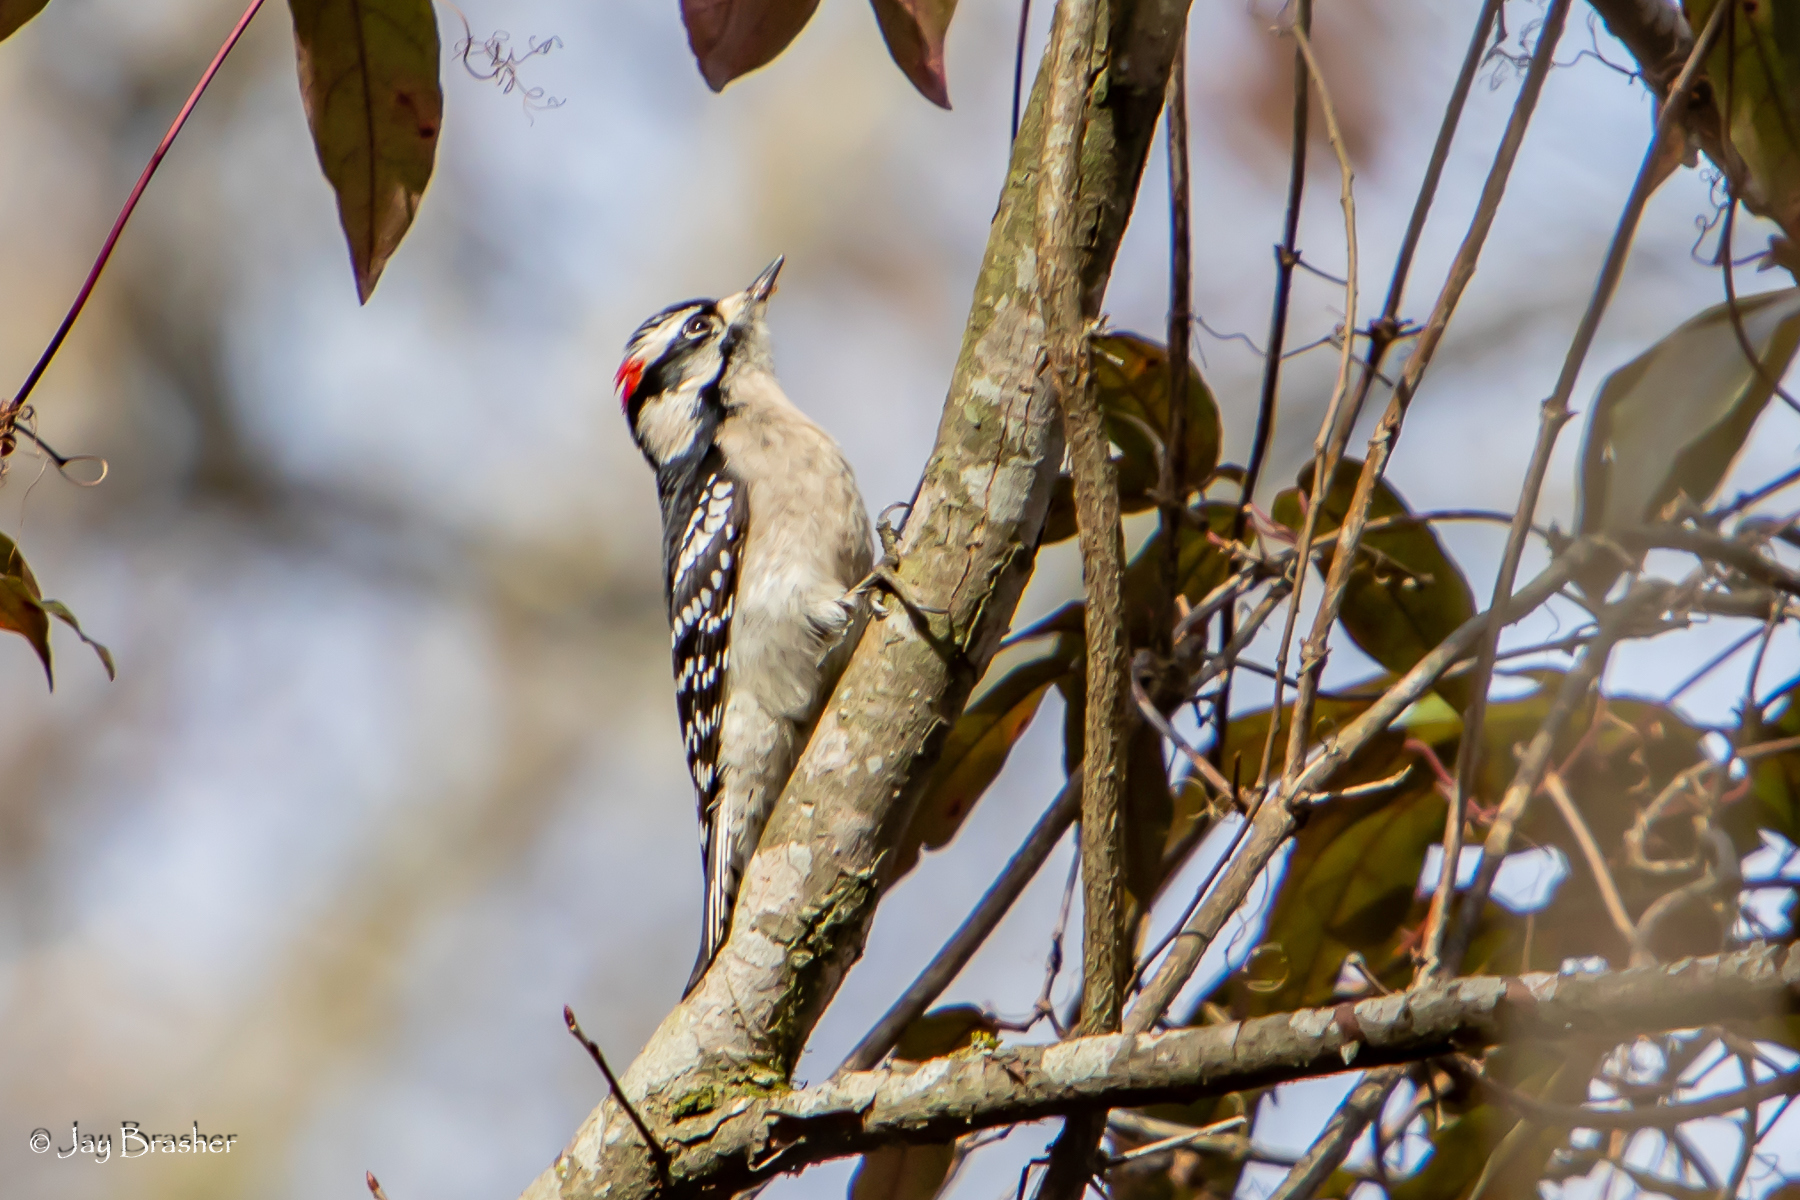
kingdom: Animalia
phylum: Chordata
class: Aves
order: Piciformes
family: Picidae
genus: Dryobates
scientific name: Dryobates pubescens
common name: Downy woodpecker
